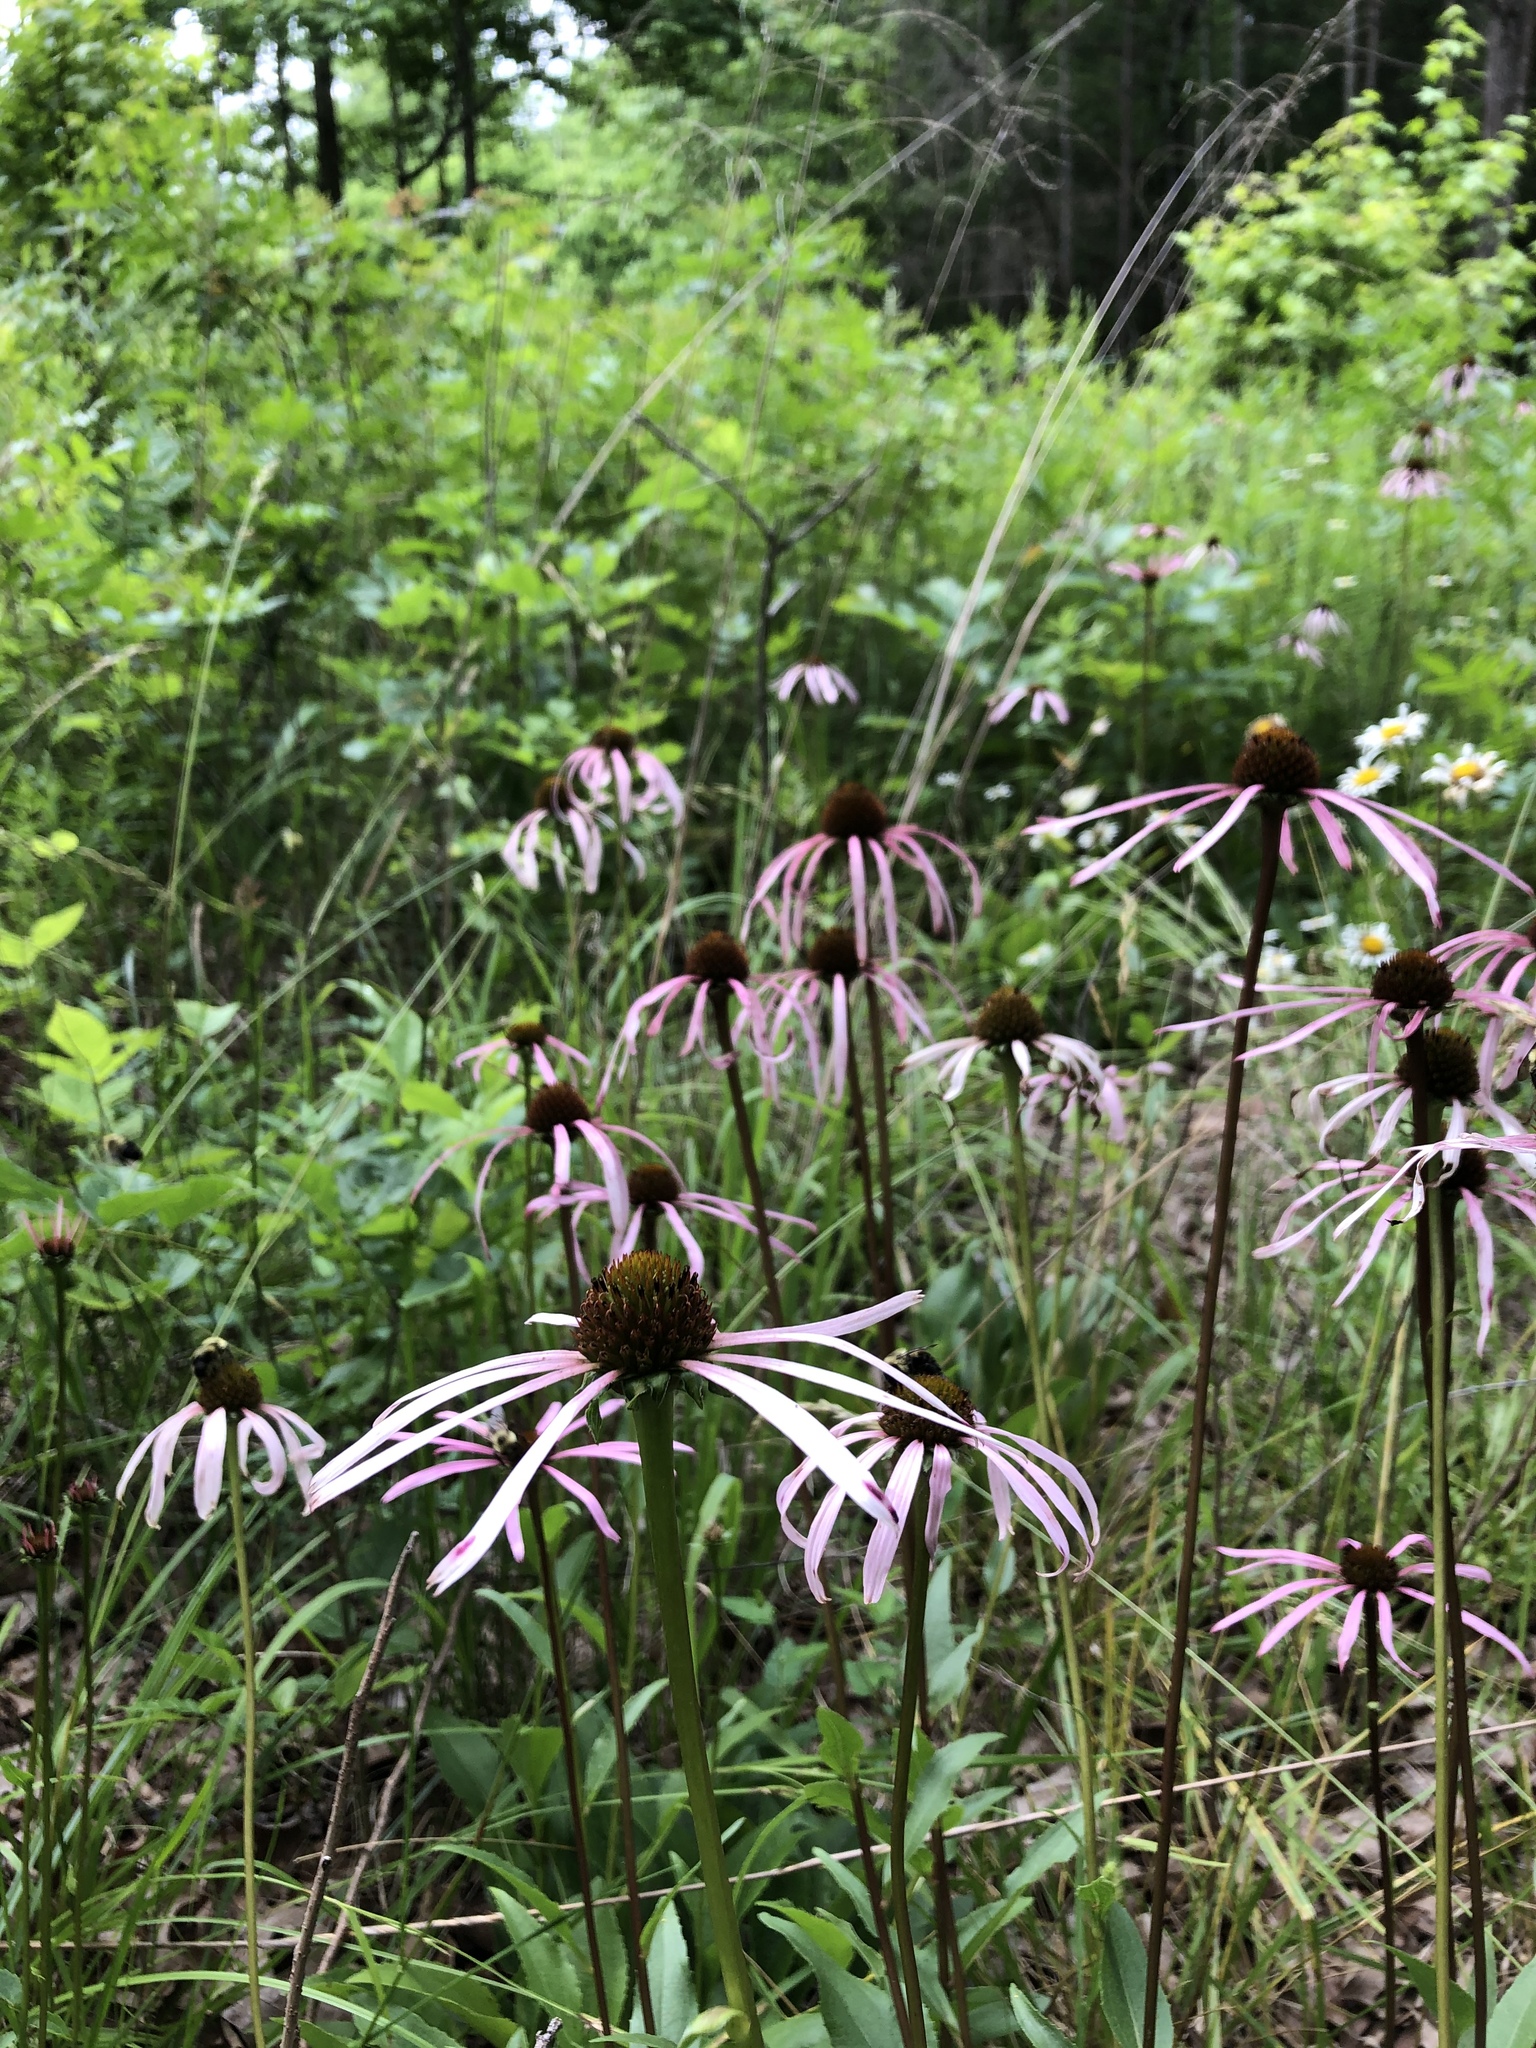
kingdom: Plantae
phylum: Tracheophyta
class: Magnoliopsida
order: Asterales
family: Asteraceae
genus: Echinacea
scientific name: Echinacea laevigata
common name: Smooth coneflower
